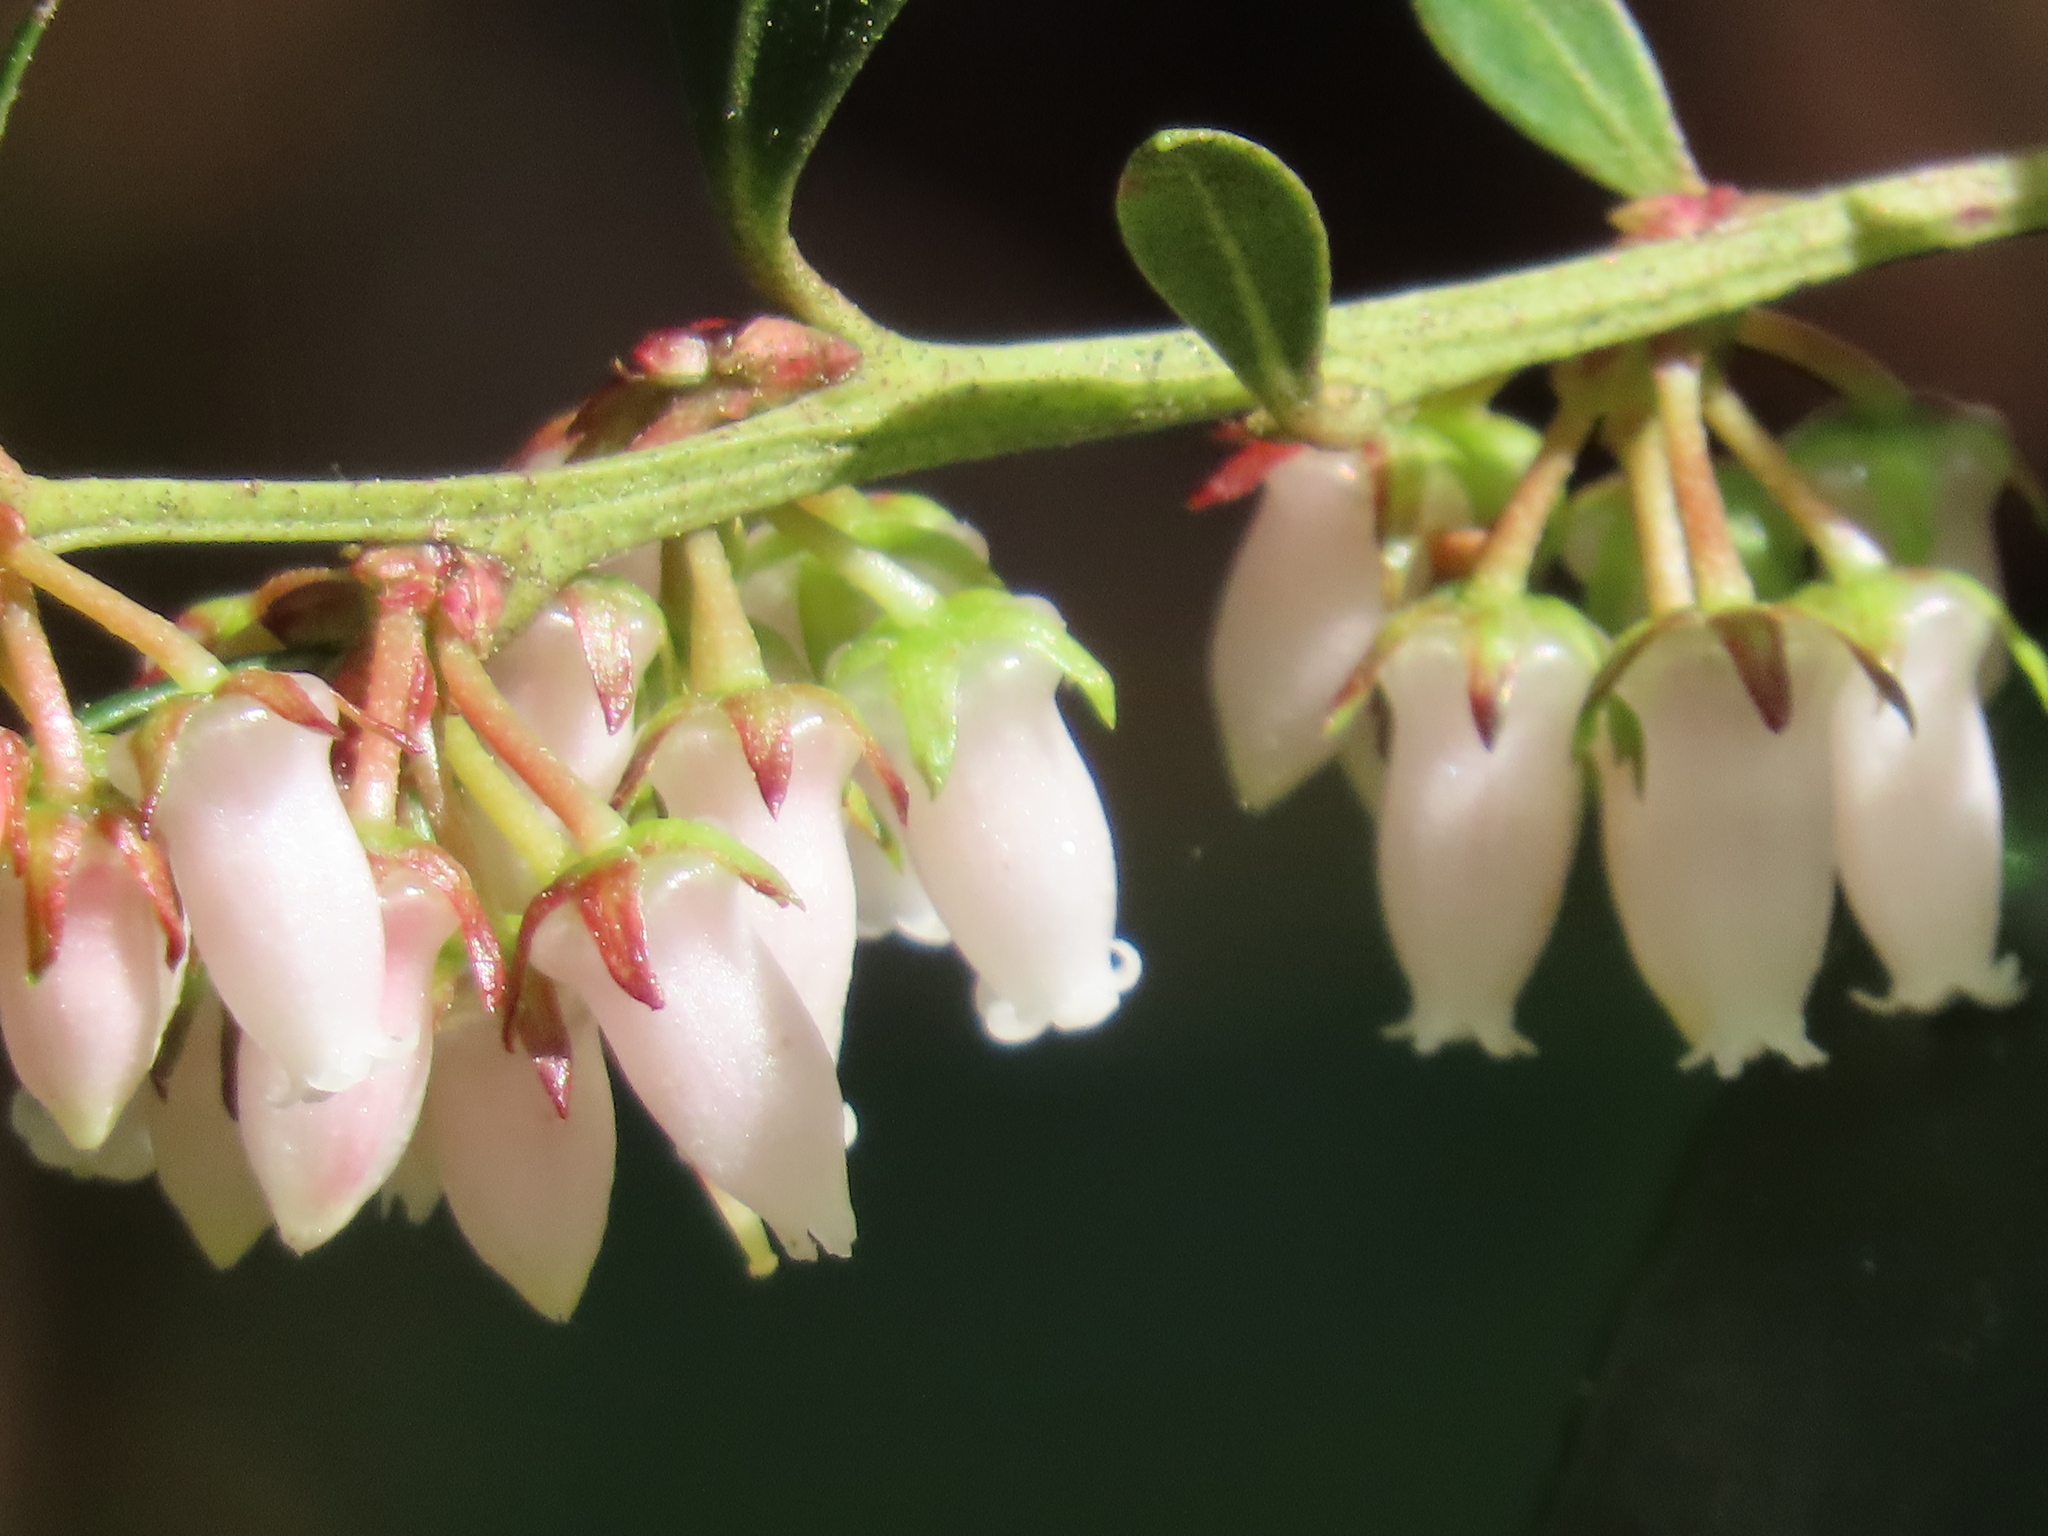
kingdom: Plantae
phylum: Tracheophyta
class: Magnoliopsida
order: Ericales
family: Ericaceae
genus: Lyonia
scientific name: Lyonia lucida
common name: Fetterbush
